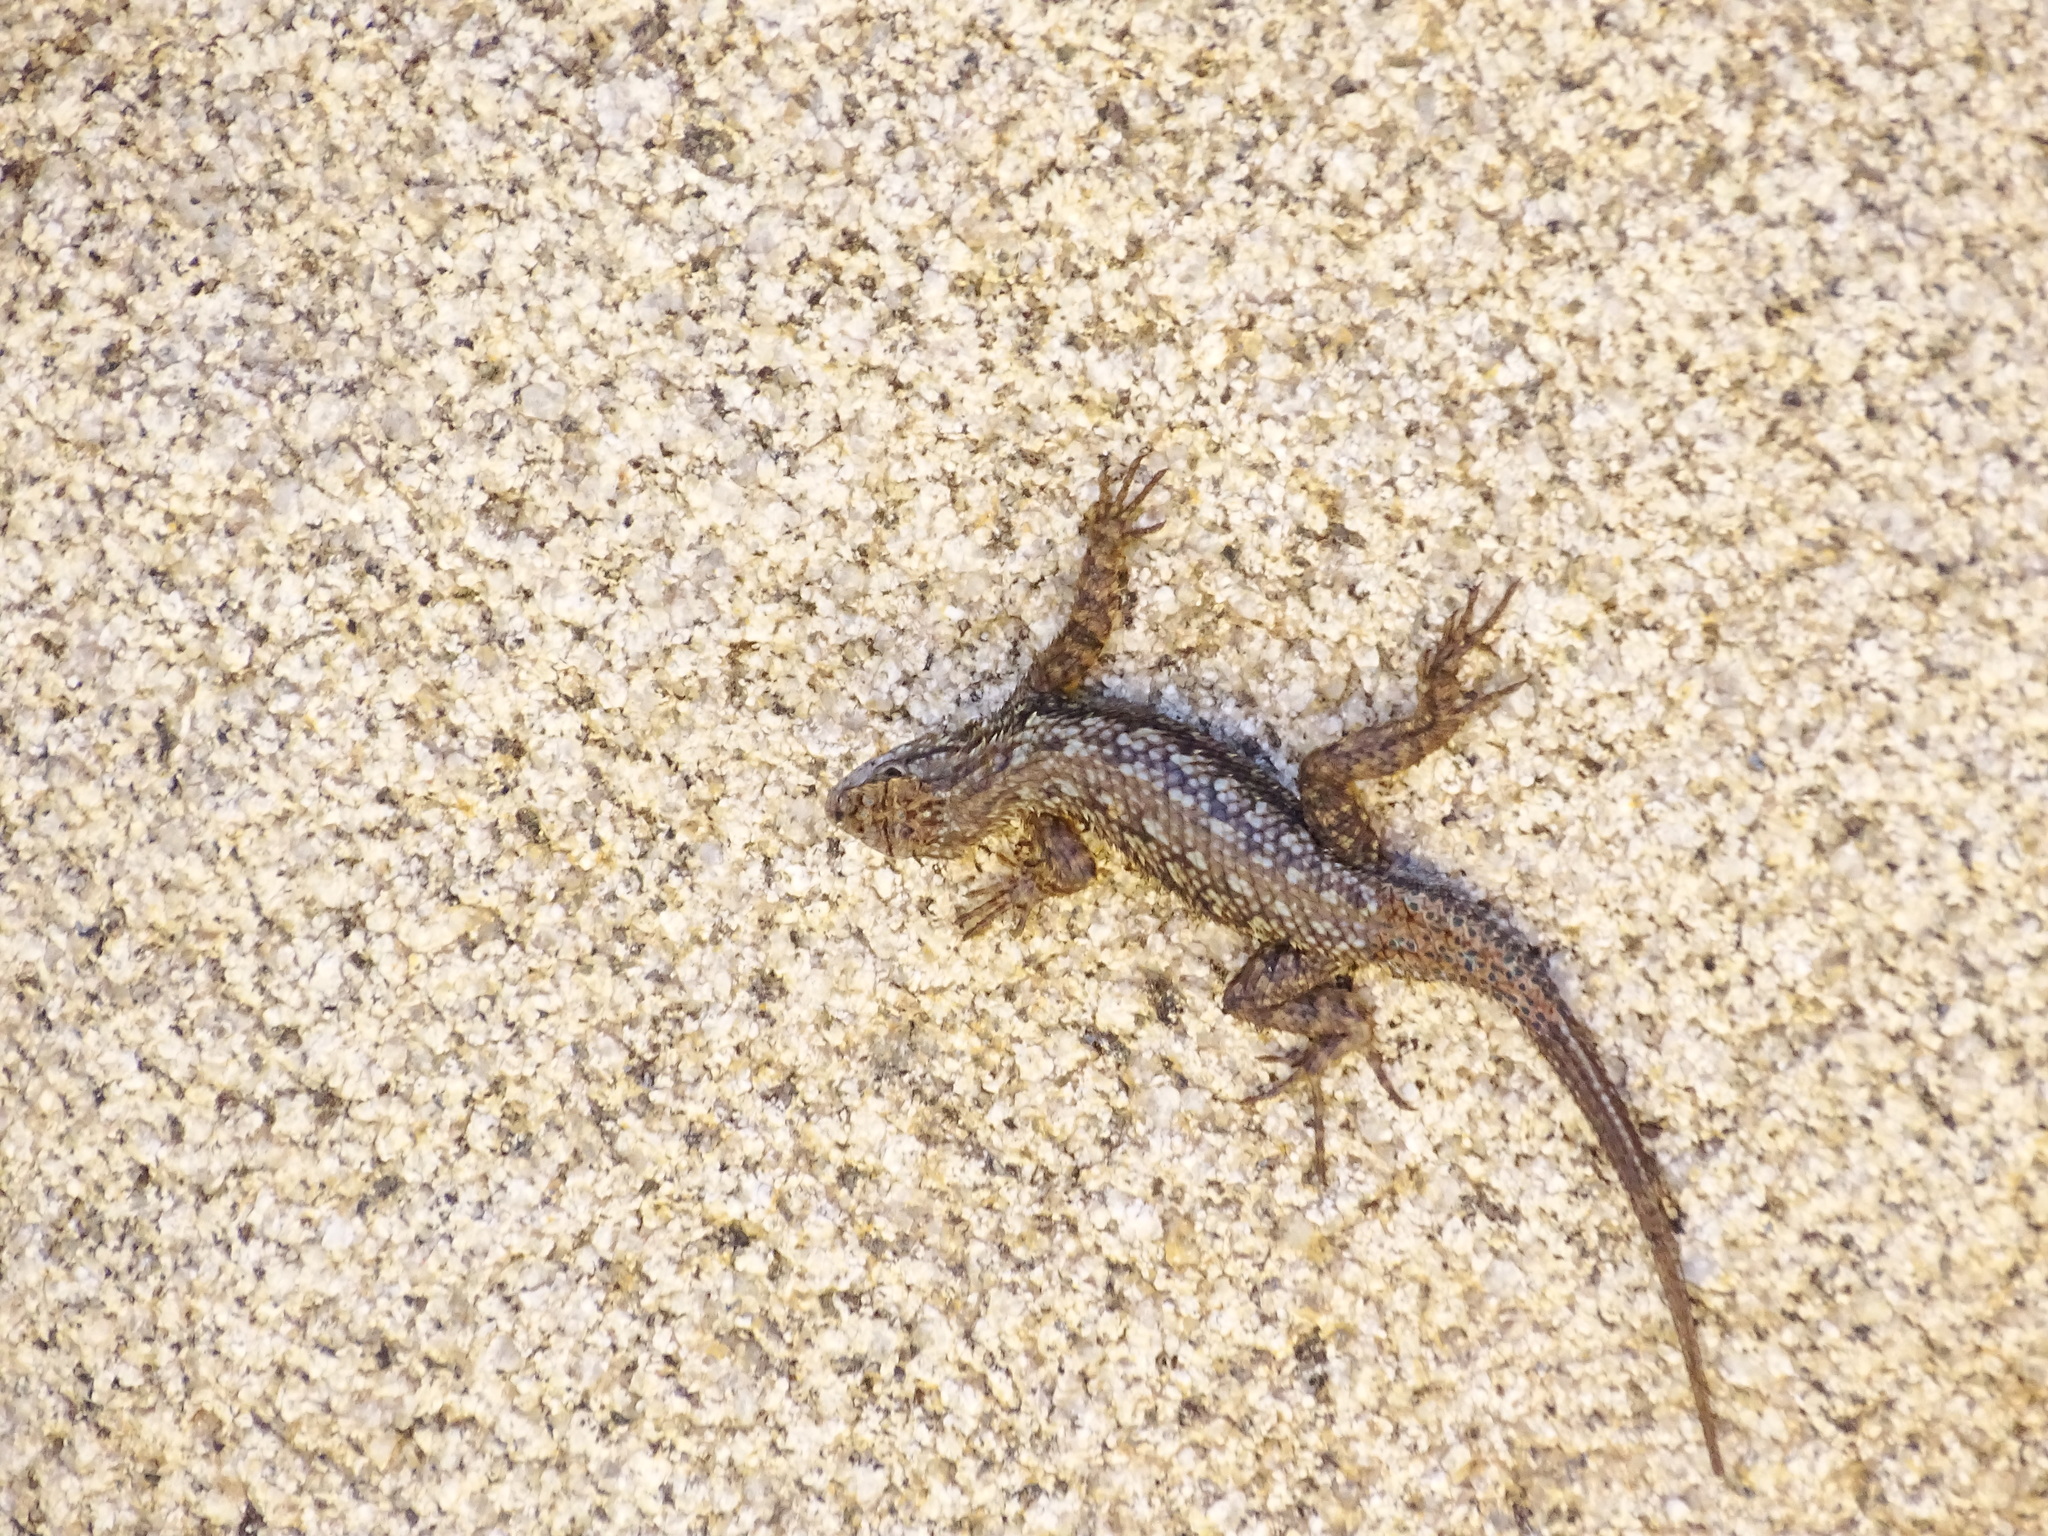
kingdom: Animalia
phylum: Chordata
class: Squamata
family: Phrynosomatidae
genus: Sceloporus
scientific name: Sceloporus occidentalis
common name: Western fence lizard
